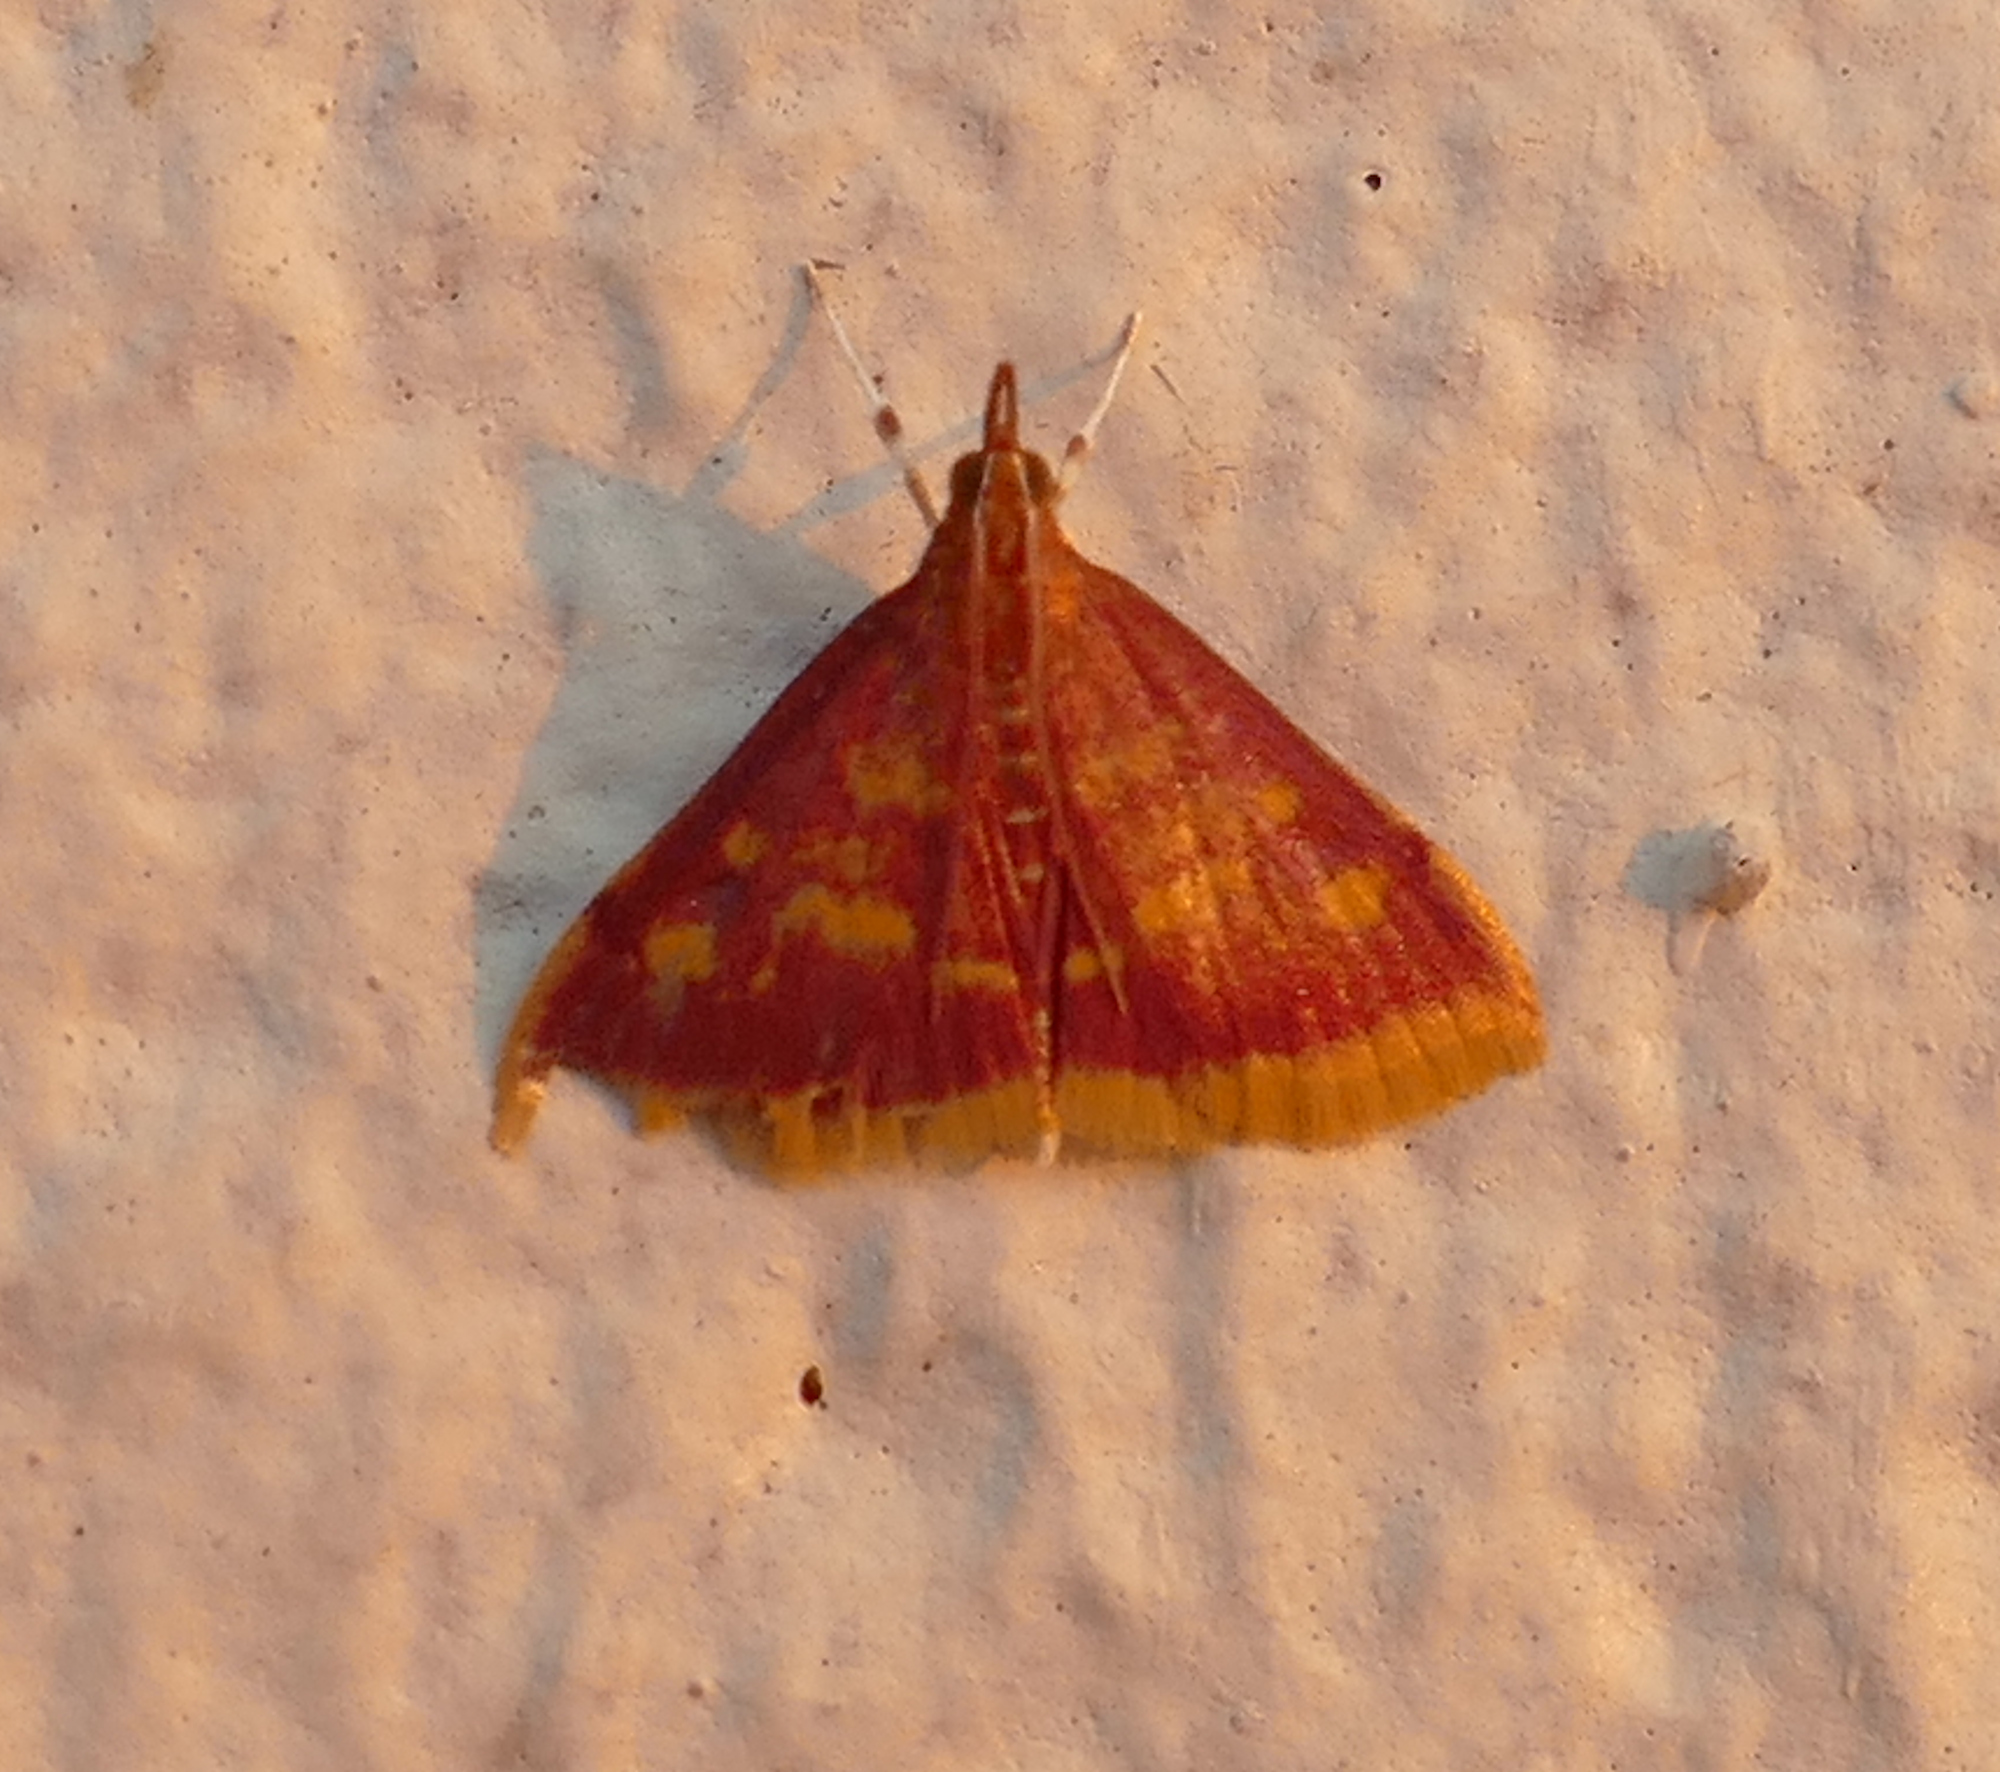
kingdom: Animalia
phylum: Arthropoda
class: Insecta
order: Lepidoptera
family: Crambidae
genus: Pyrausta
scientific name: Pyrausta acrionalis
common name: Mint-loving pyrausta moth
